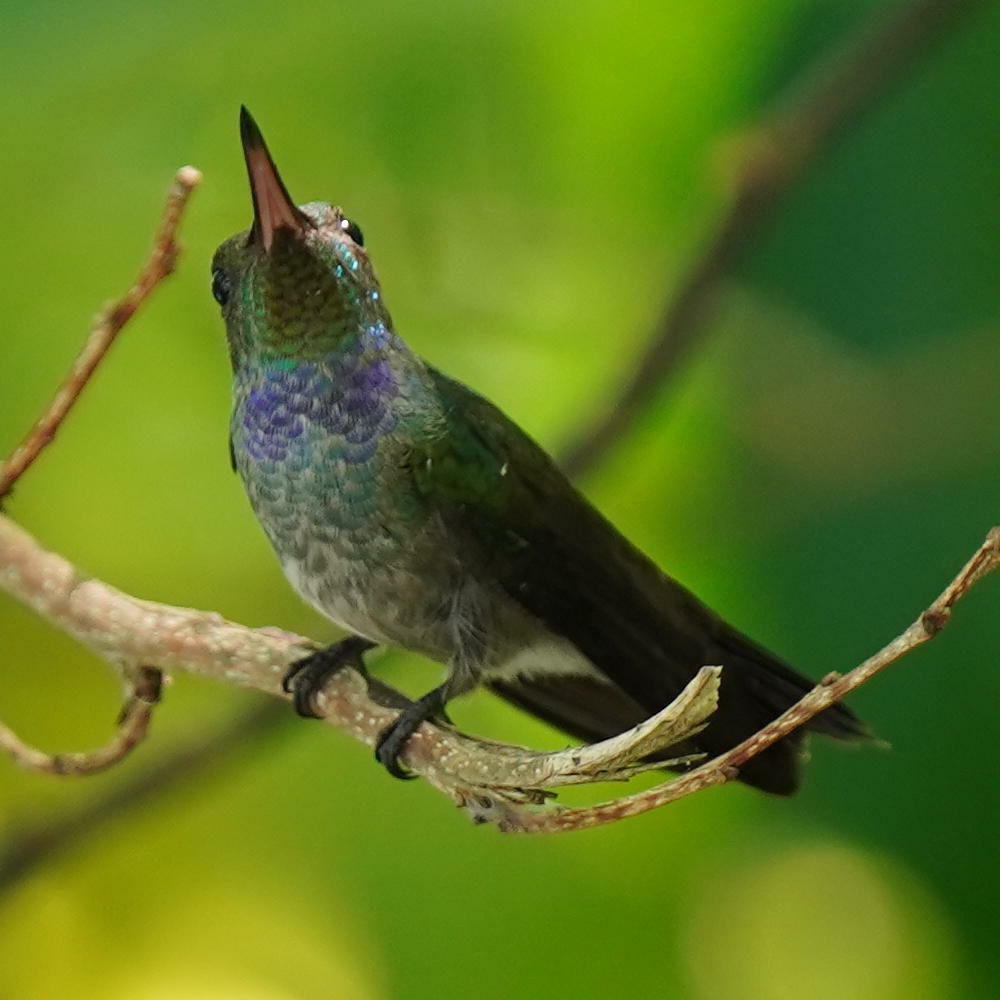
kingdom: Animalia
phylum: Chordata
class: Aves
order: Apodiformes
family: Trochilidae
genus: Polyerata
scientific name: Polyerata amabilis
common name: Blue-chested hummingbird
